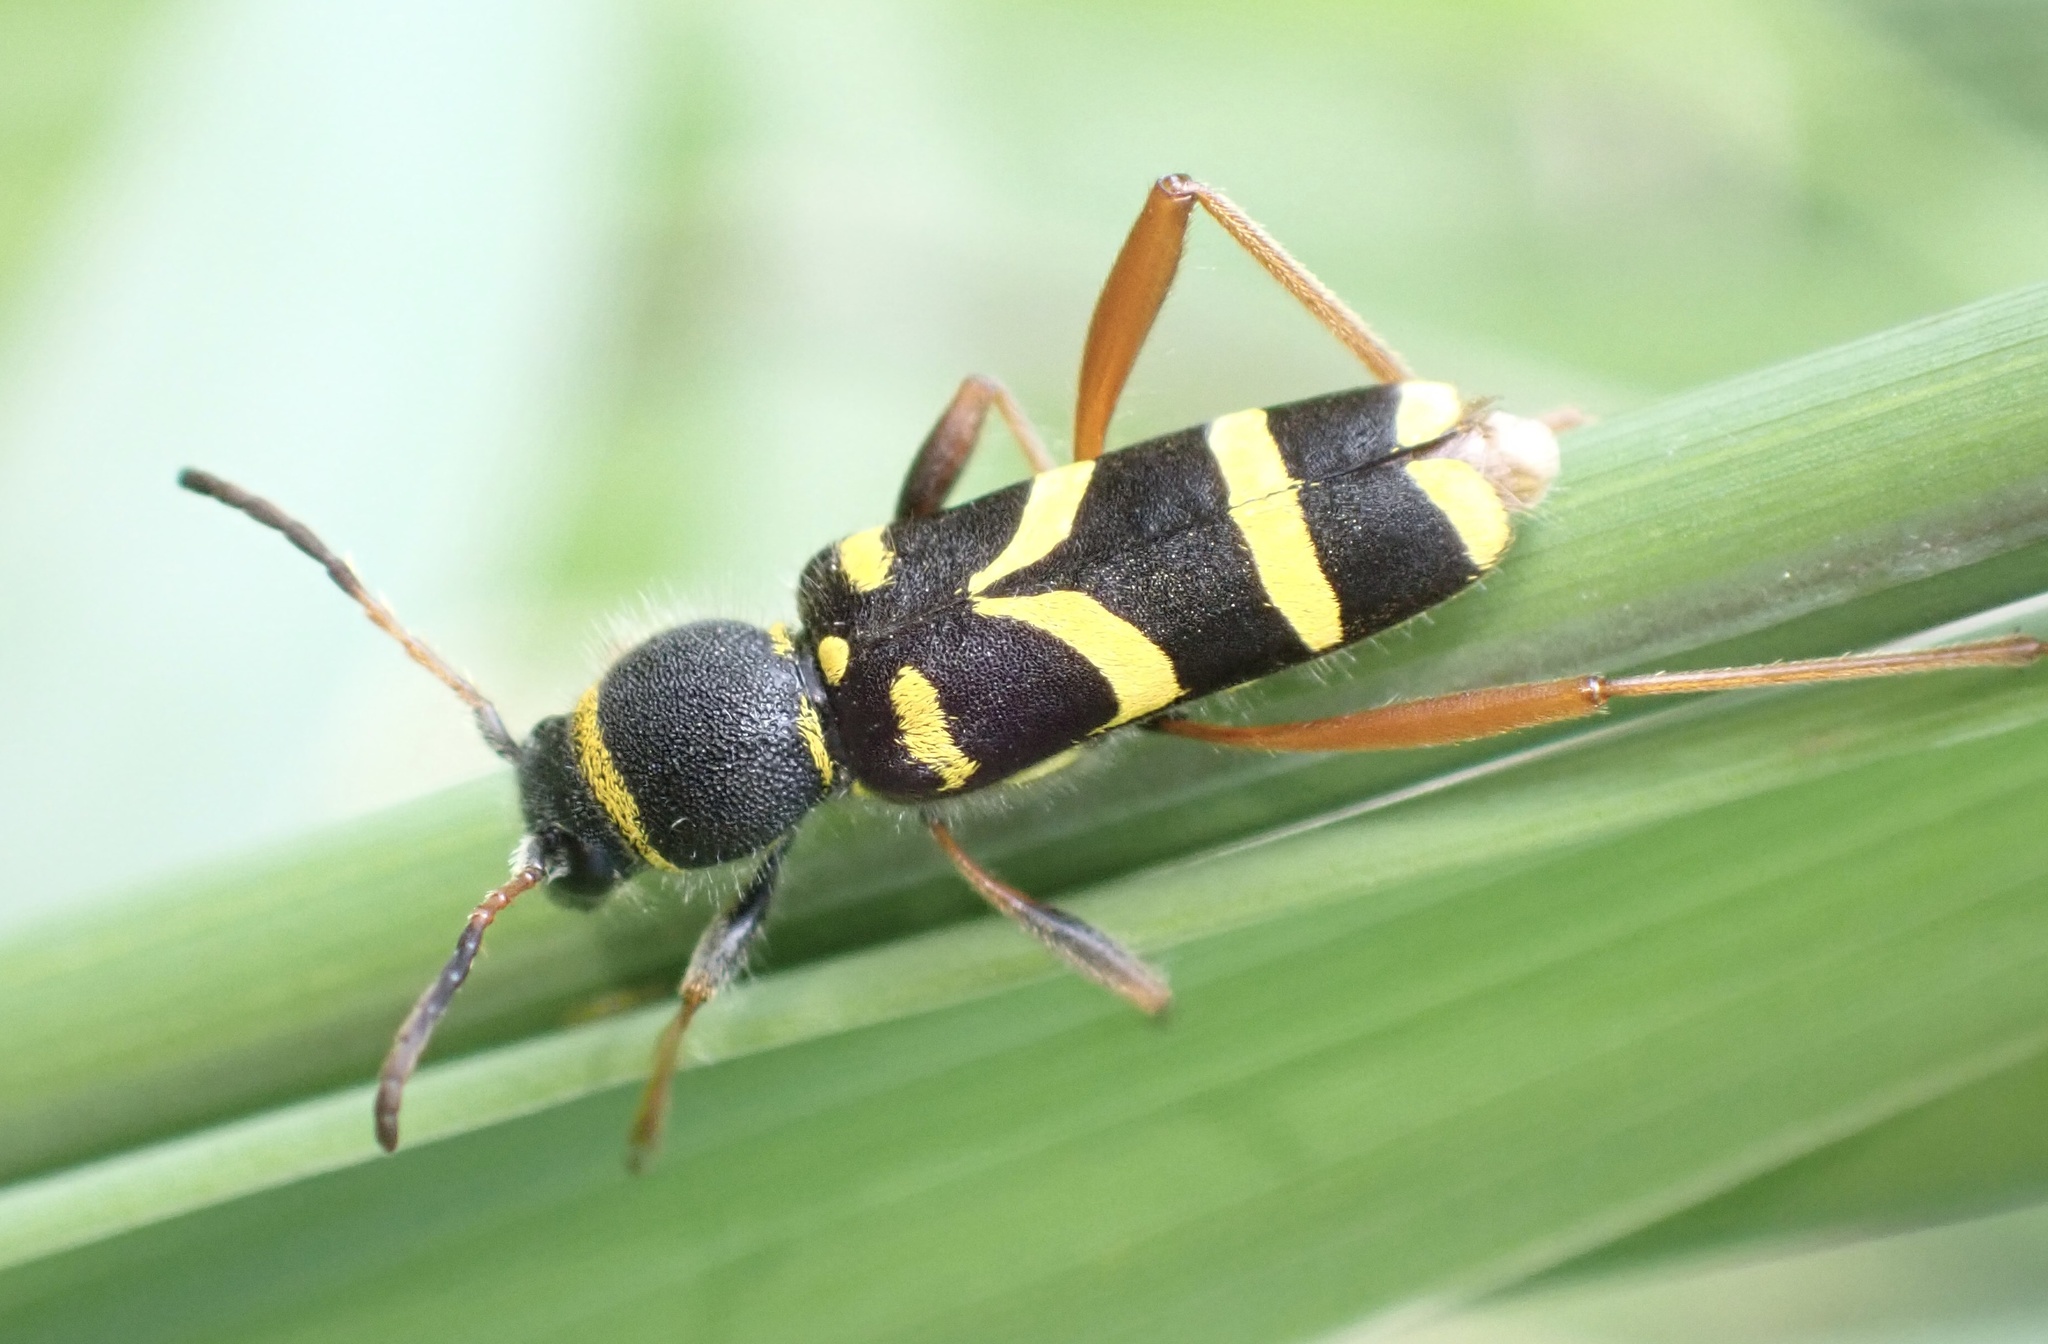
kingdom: Animalia
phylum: Arthropoda
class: Insecta
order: Coleoptera
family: Cerambycidae
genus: Clytus
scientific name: Clytus arietis
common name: Wasp beetle
